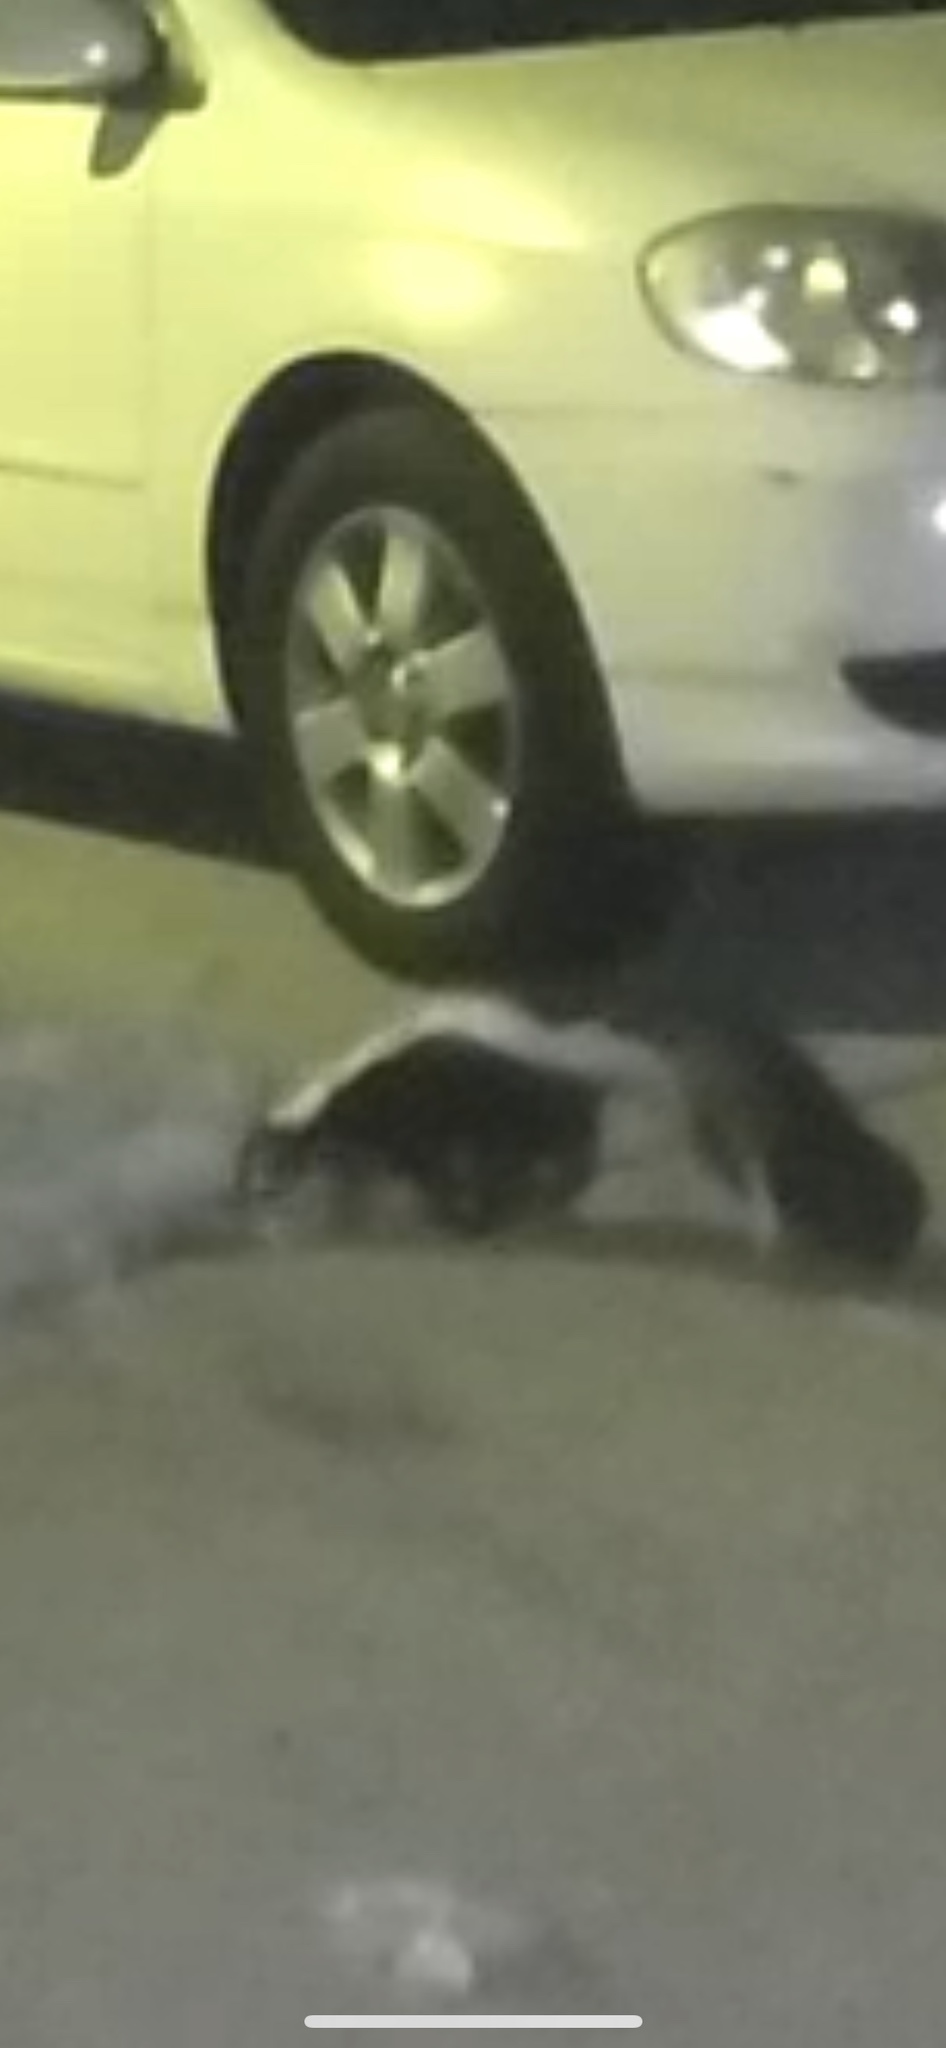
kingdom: Animalia
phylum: Chordata
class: Mammalia
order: Carnivora
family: Mephitidae
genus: Mephitis
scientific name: Mephitis mephitis
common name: Striped skunk
